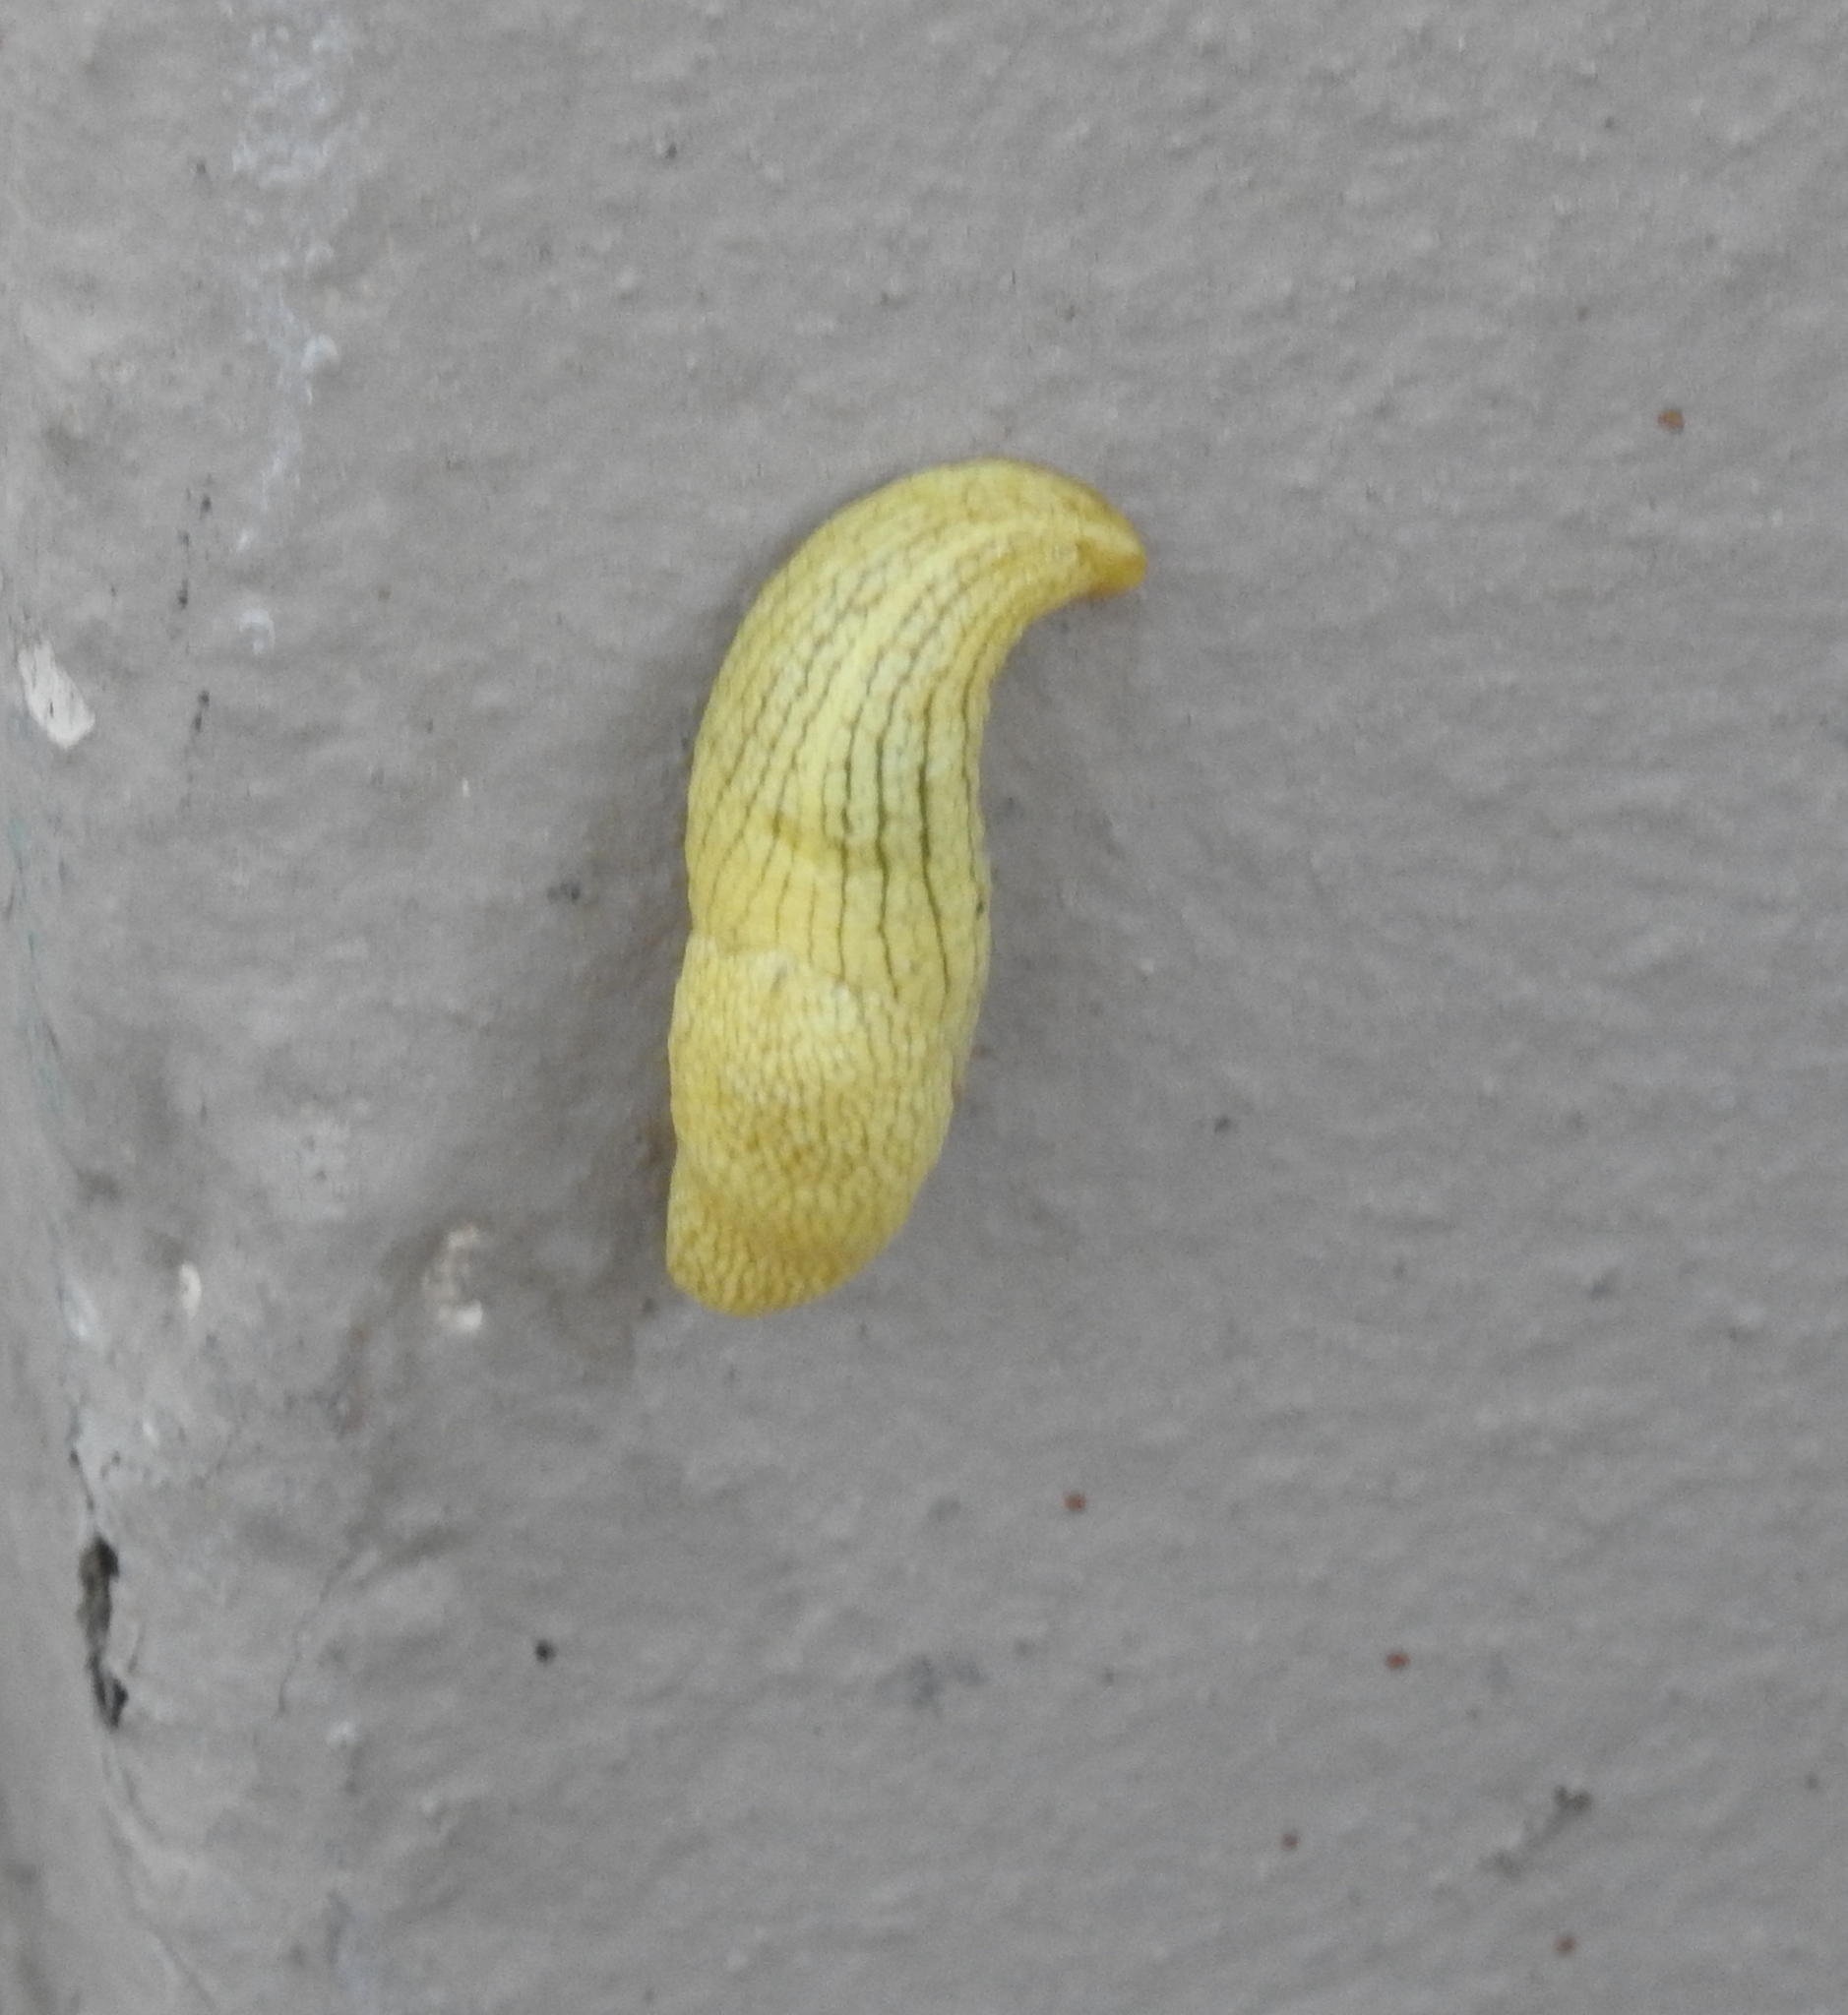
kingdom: Animalia
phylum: Mollusca
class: Gastropoda
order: Stylommatophora
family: Urocyclidae
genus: Elisolimax
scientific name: Elisolimax flavescens
